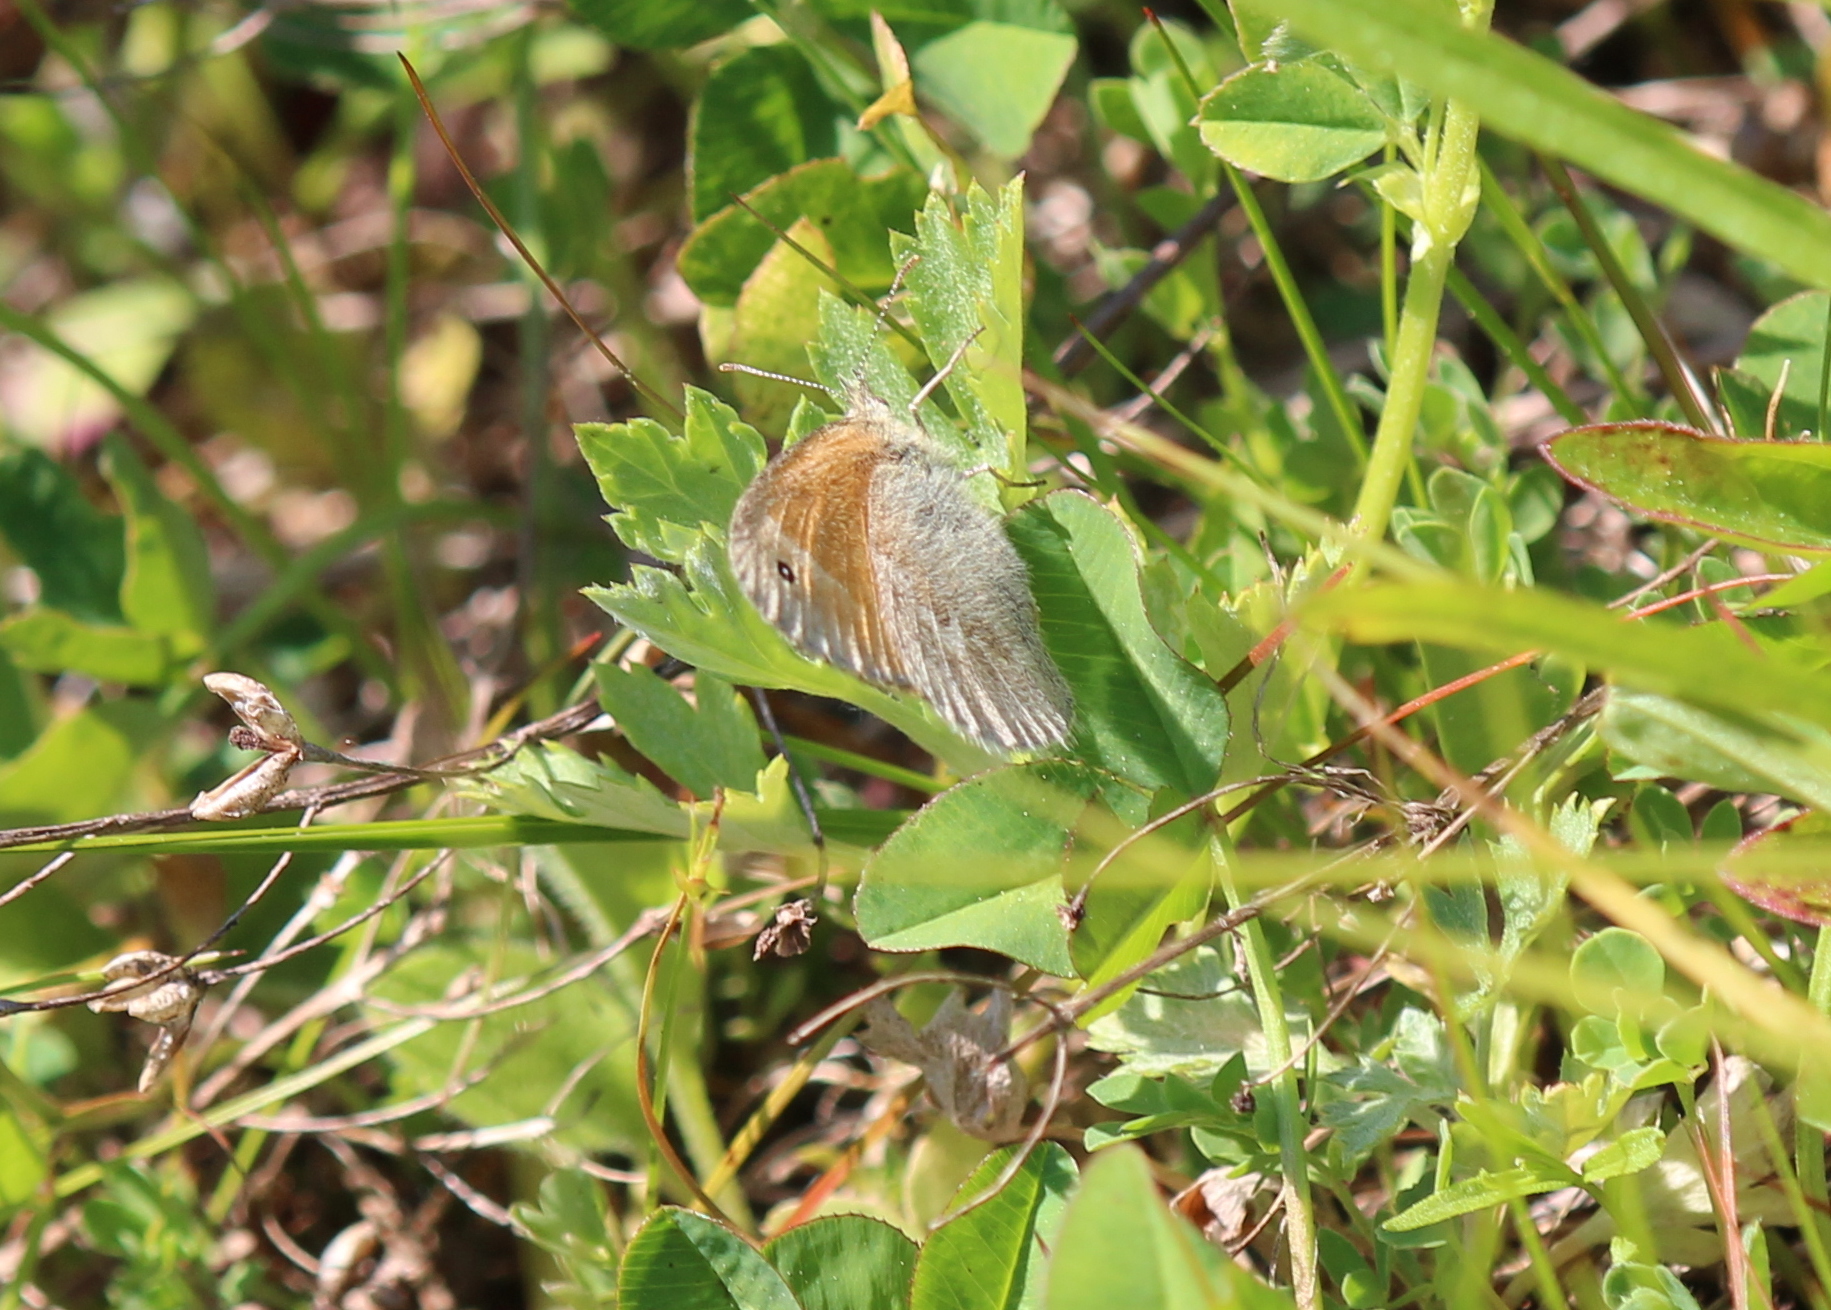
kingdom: Animalia
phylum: Arthropoda
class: Insecta
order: Lepidoptera
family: Nymphalidae
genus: Coenonympha
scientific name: Coenonympha california
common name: Common ringlet
